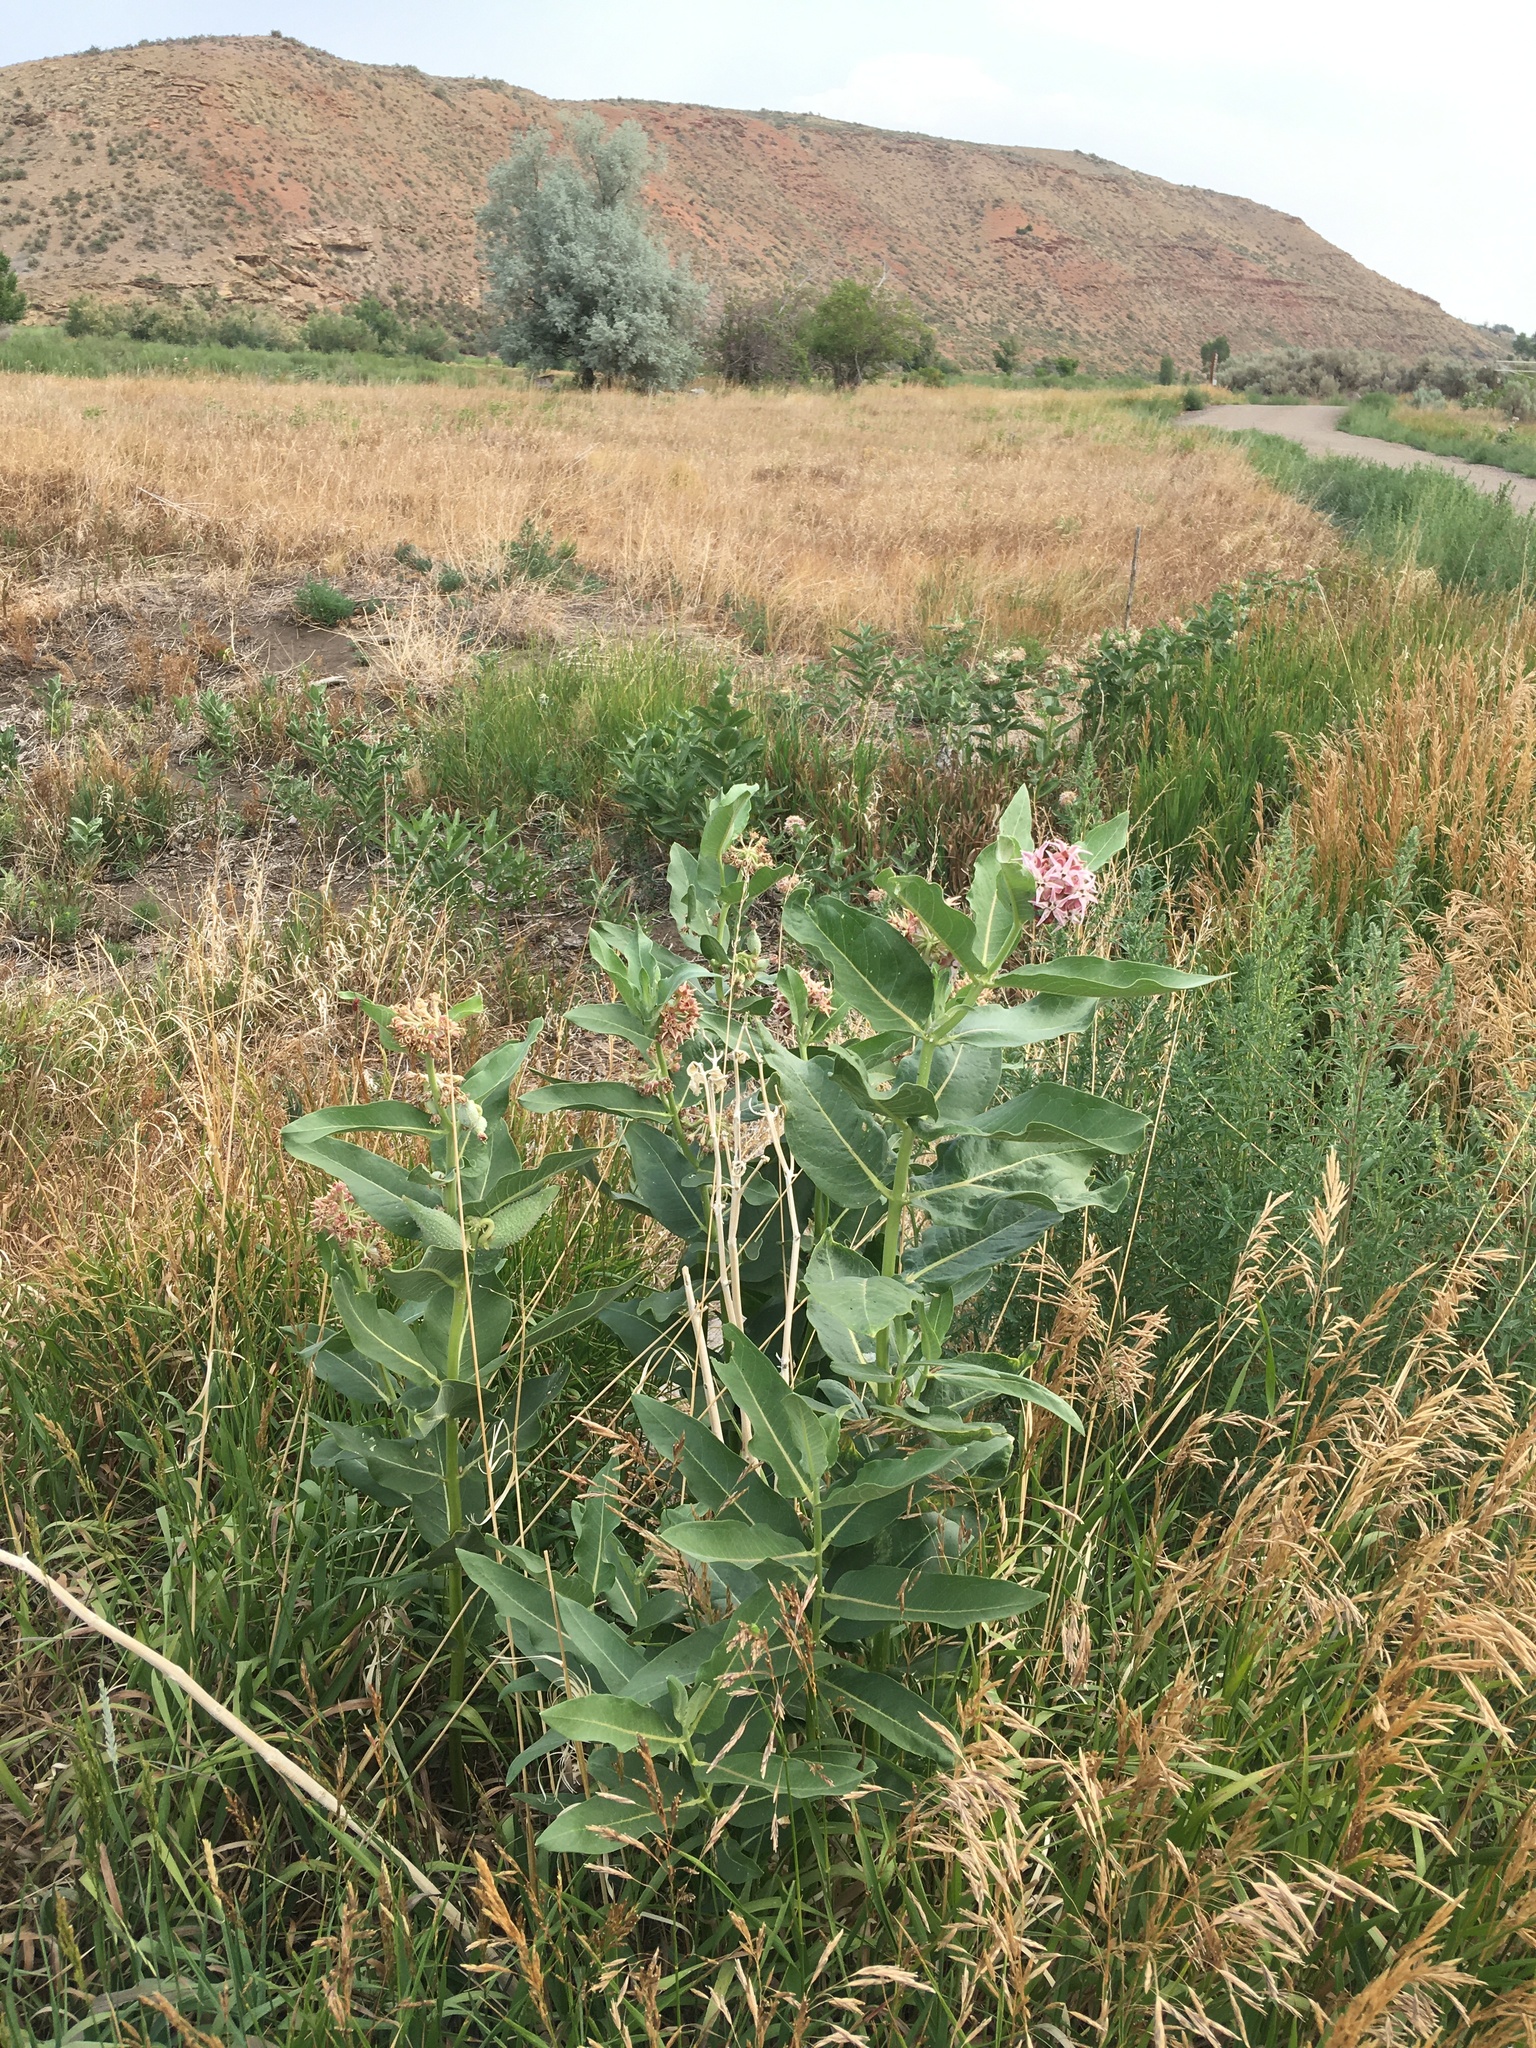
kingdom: Plantae
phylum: Tracheophyta
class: Magnoliopsida
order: Gentianales
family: Apocynaceae
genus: Asclepias
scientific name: Asclepias speciosa
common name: Showy milkweed
